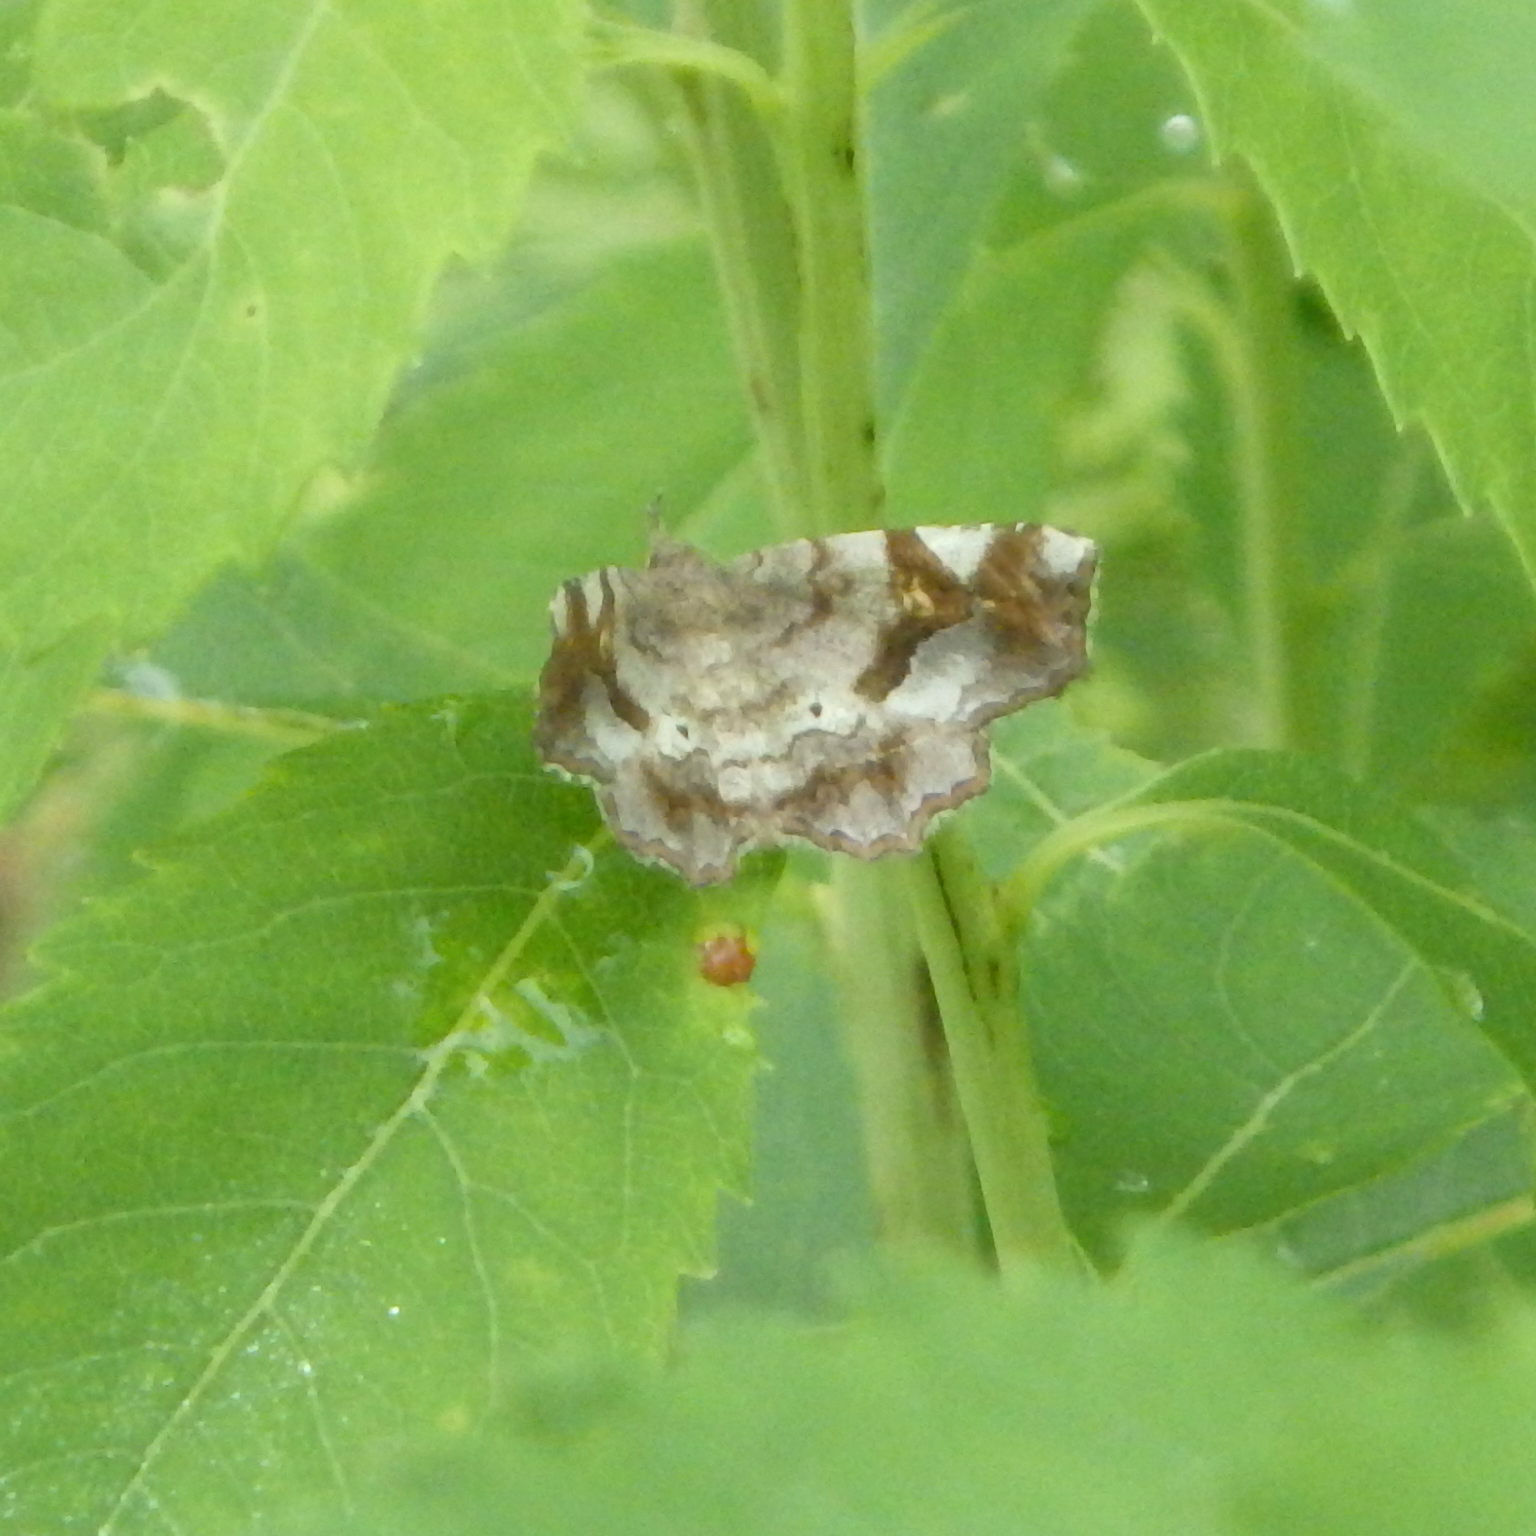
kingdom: Animalia
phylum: Arthropoda
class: Insecta
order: Lepidoptera
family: Erebidae
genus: Pangrapta
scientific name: Pangrapta decoralis
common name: Decorated owlet
